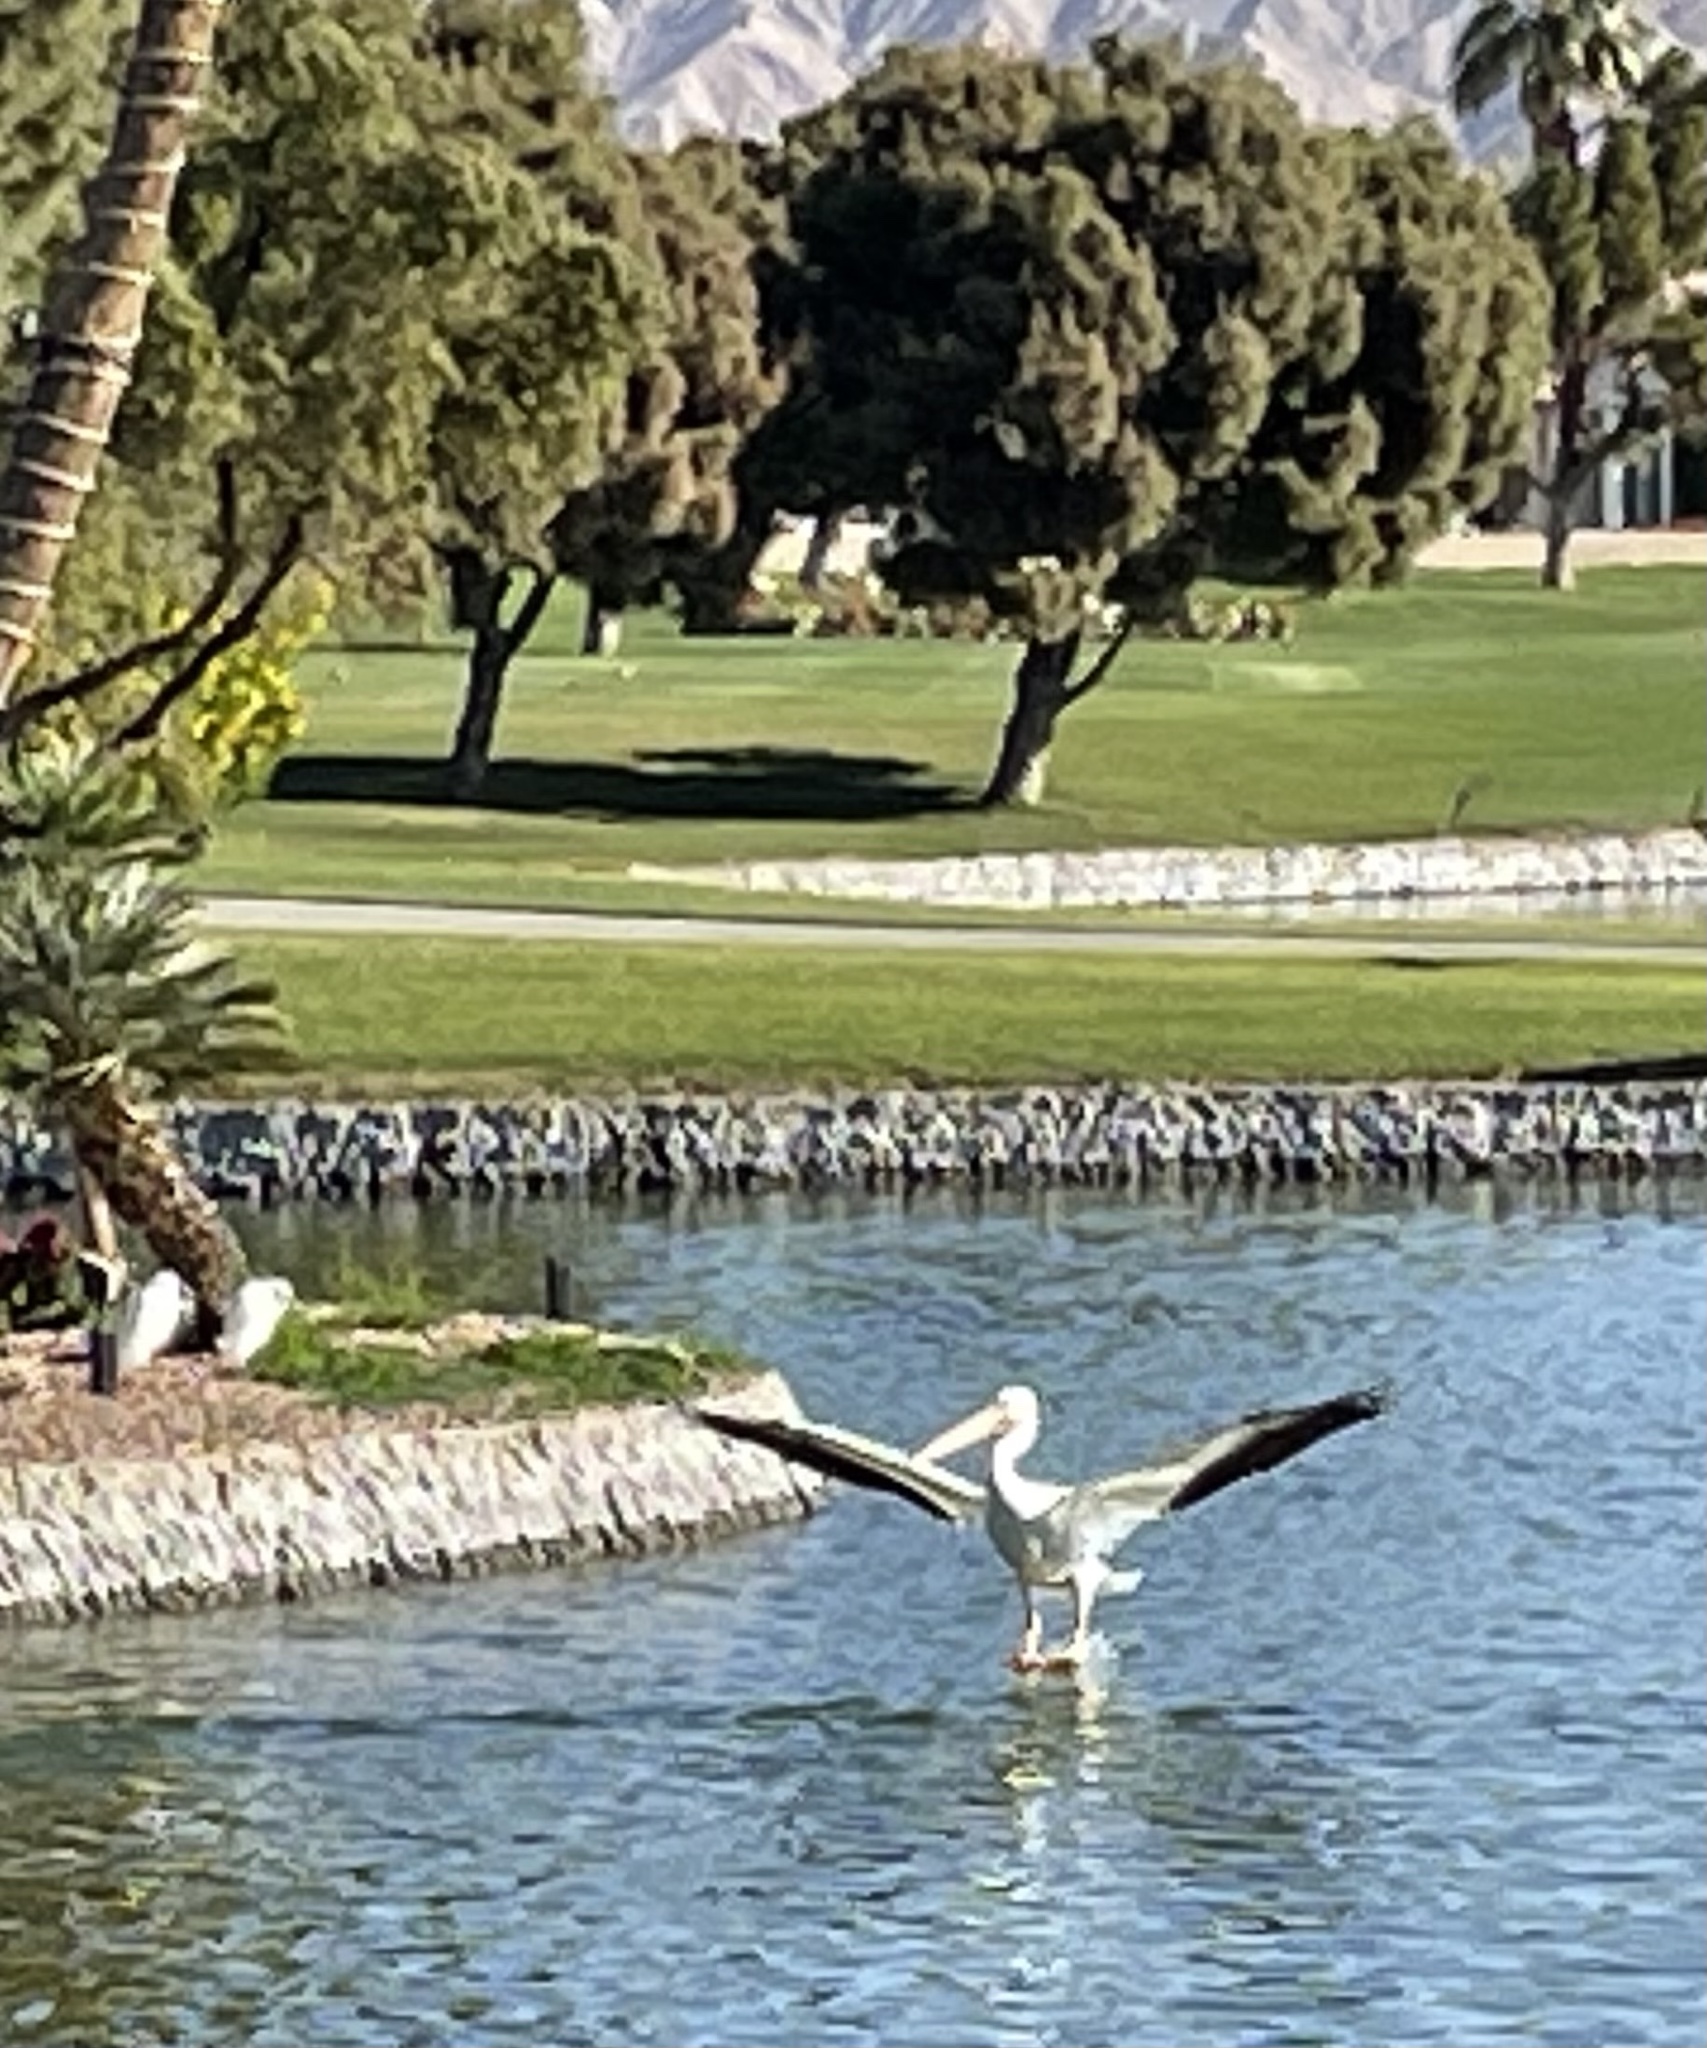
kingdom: Animalia
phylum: Chordata
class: Aves
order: Pelecaniformes
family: Pelecanidae
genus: Pelecanus
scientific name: Pelecanus erythrorhynchos
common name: American white pelican
